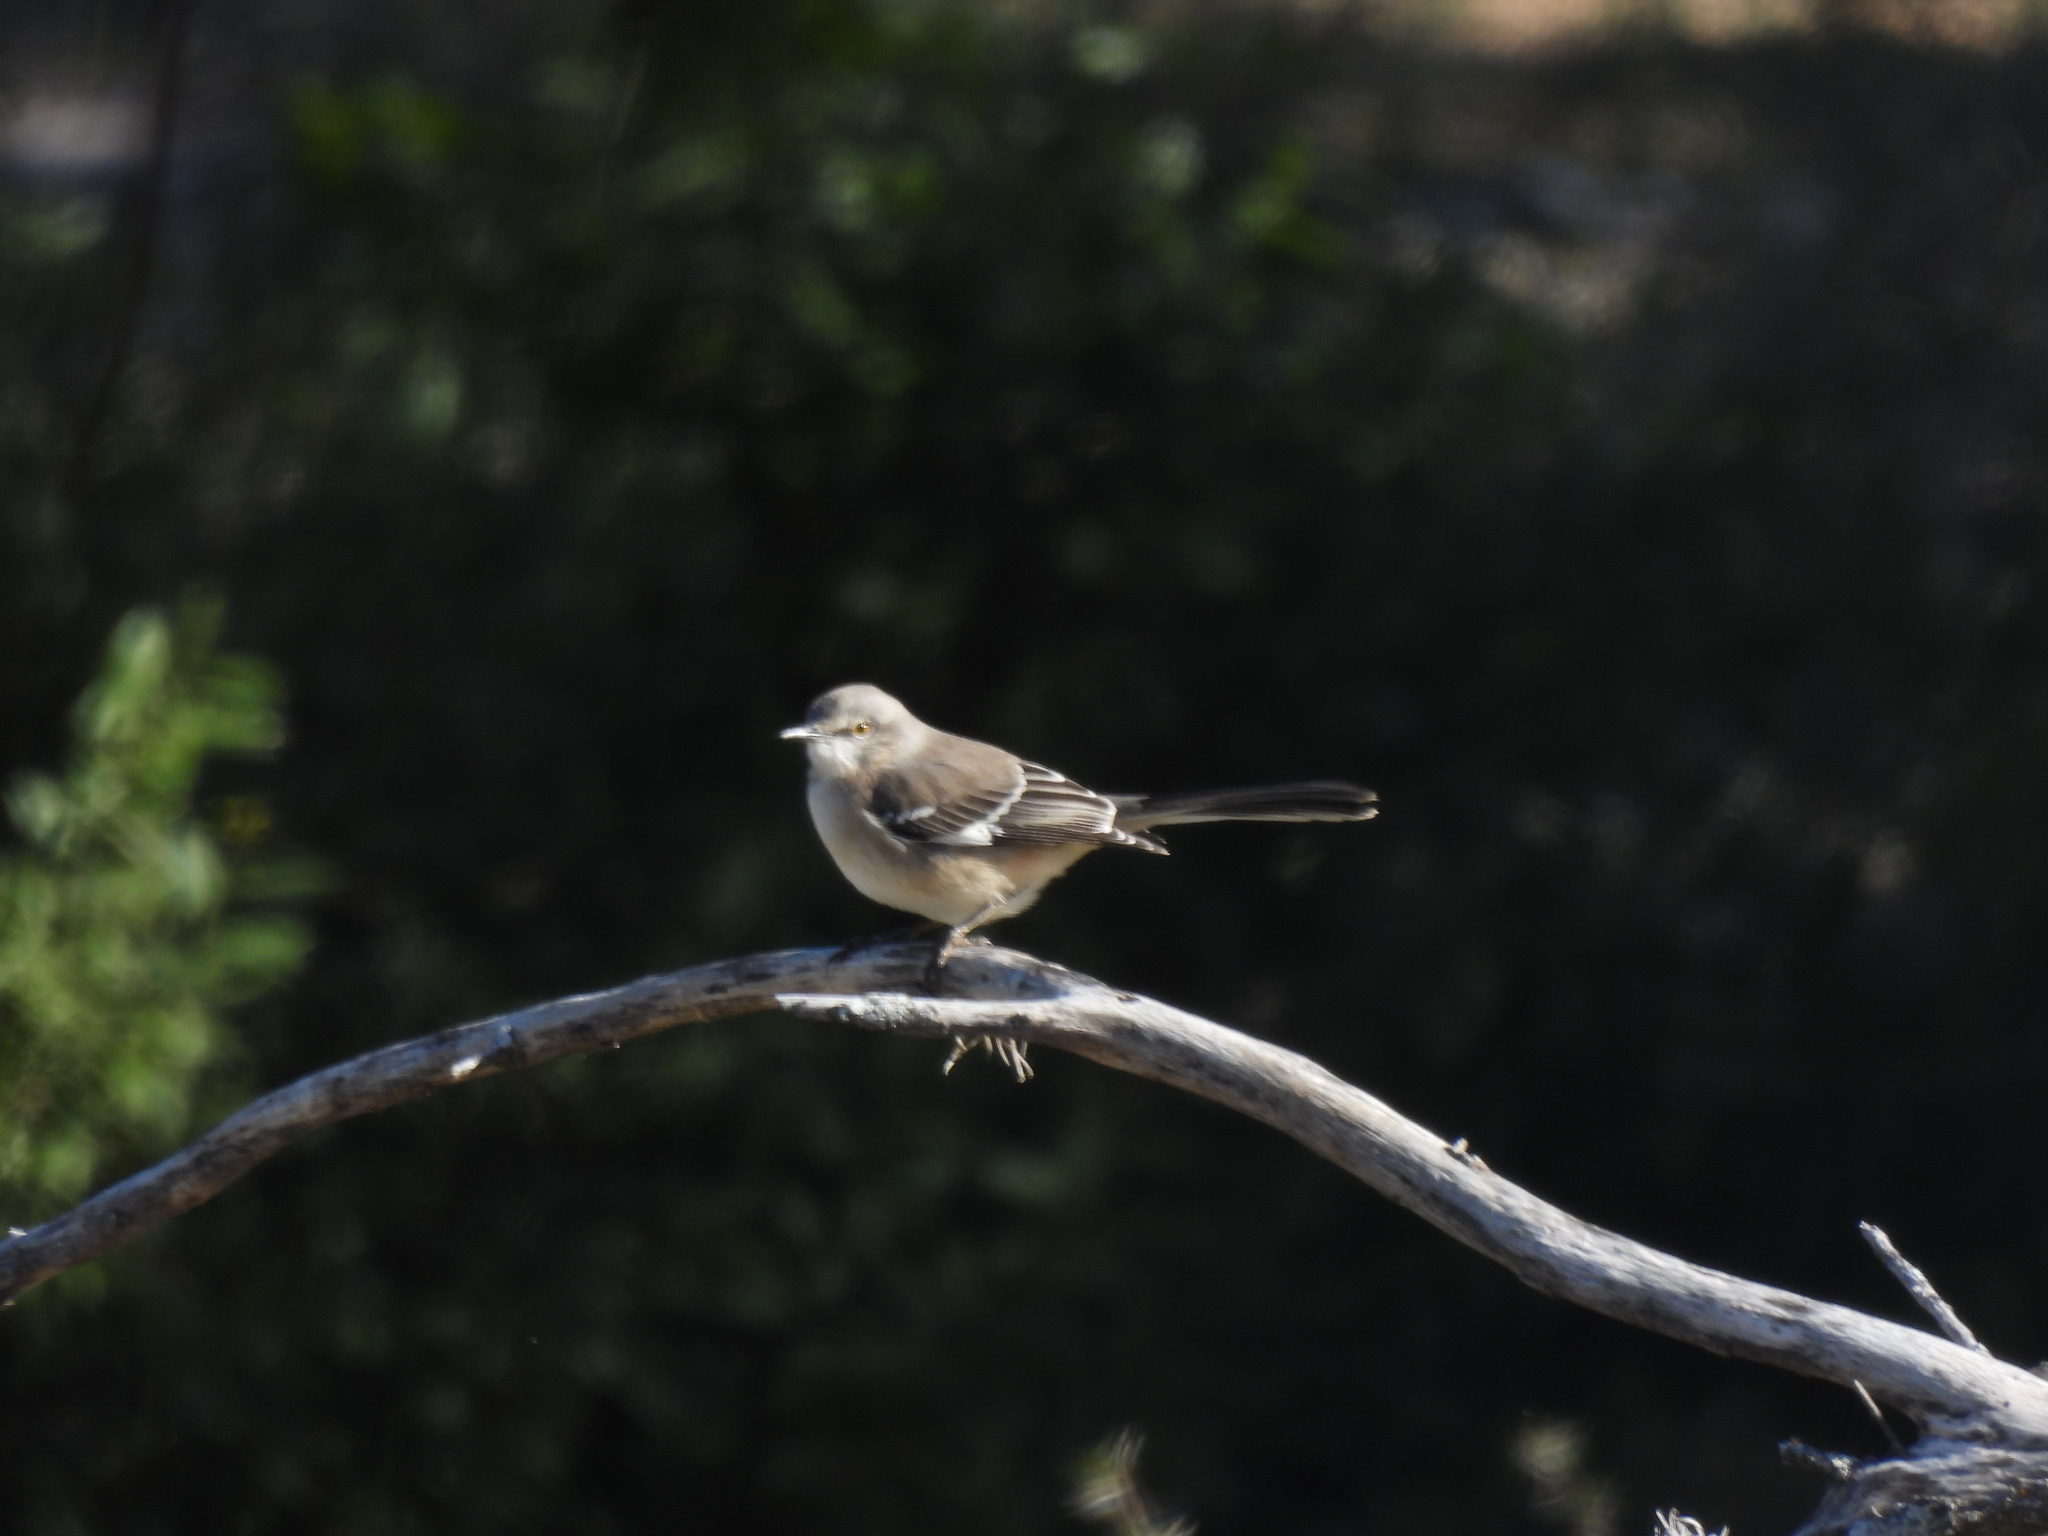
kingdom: Animalia
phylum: Chordata
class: Aves
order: Passeriformes
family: Mimidae
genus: Mimus
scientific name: Mimus polyglottos
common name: Northern mockingbird
